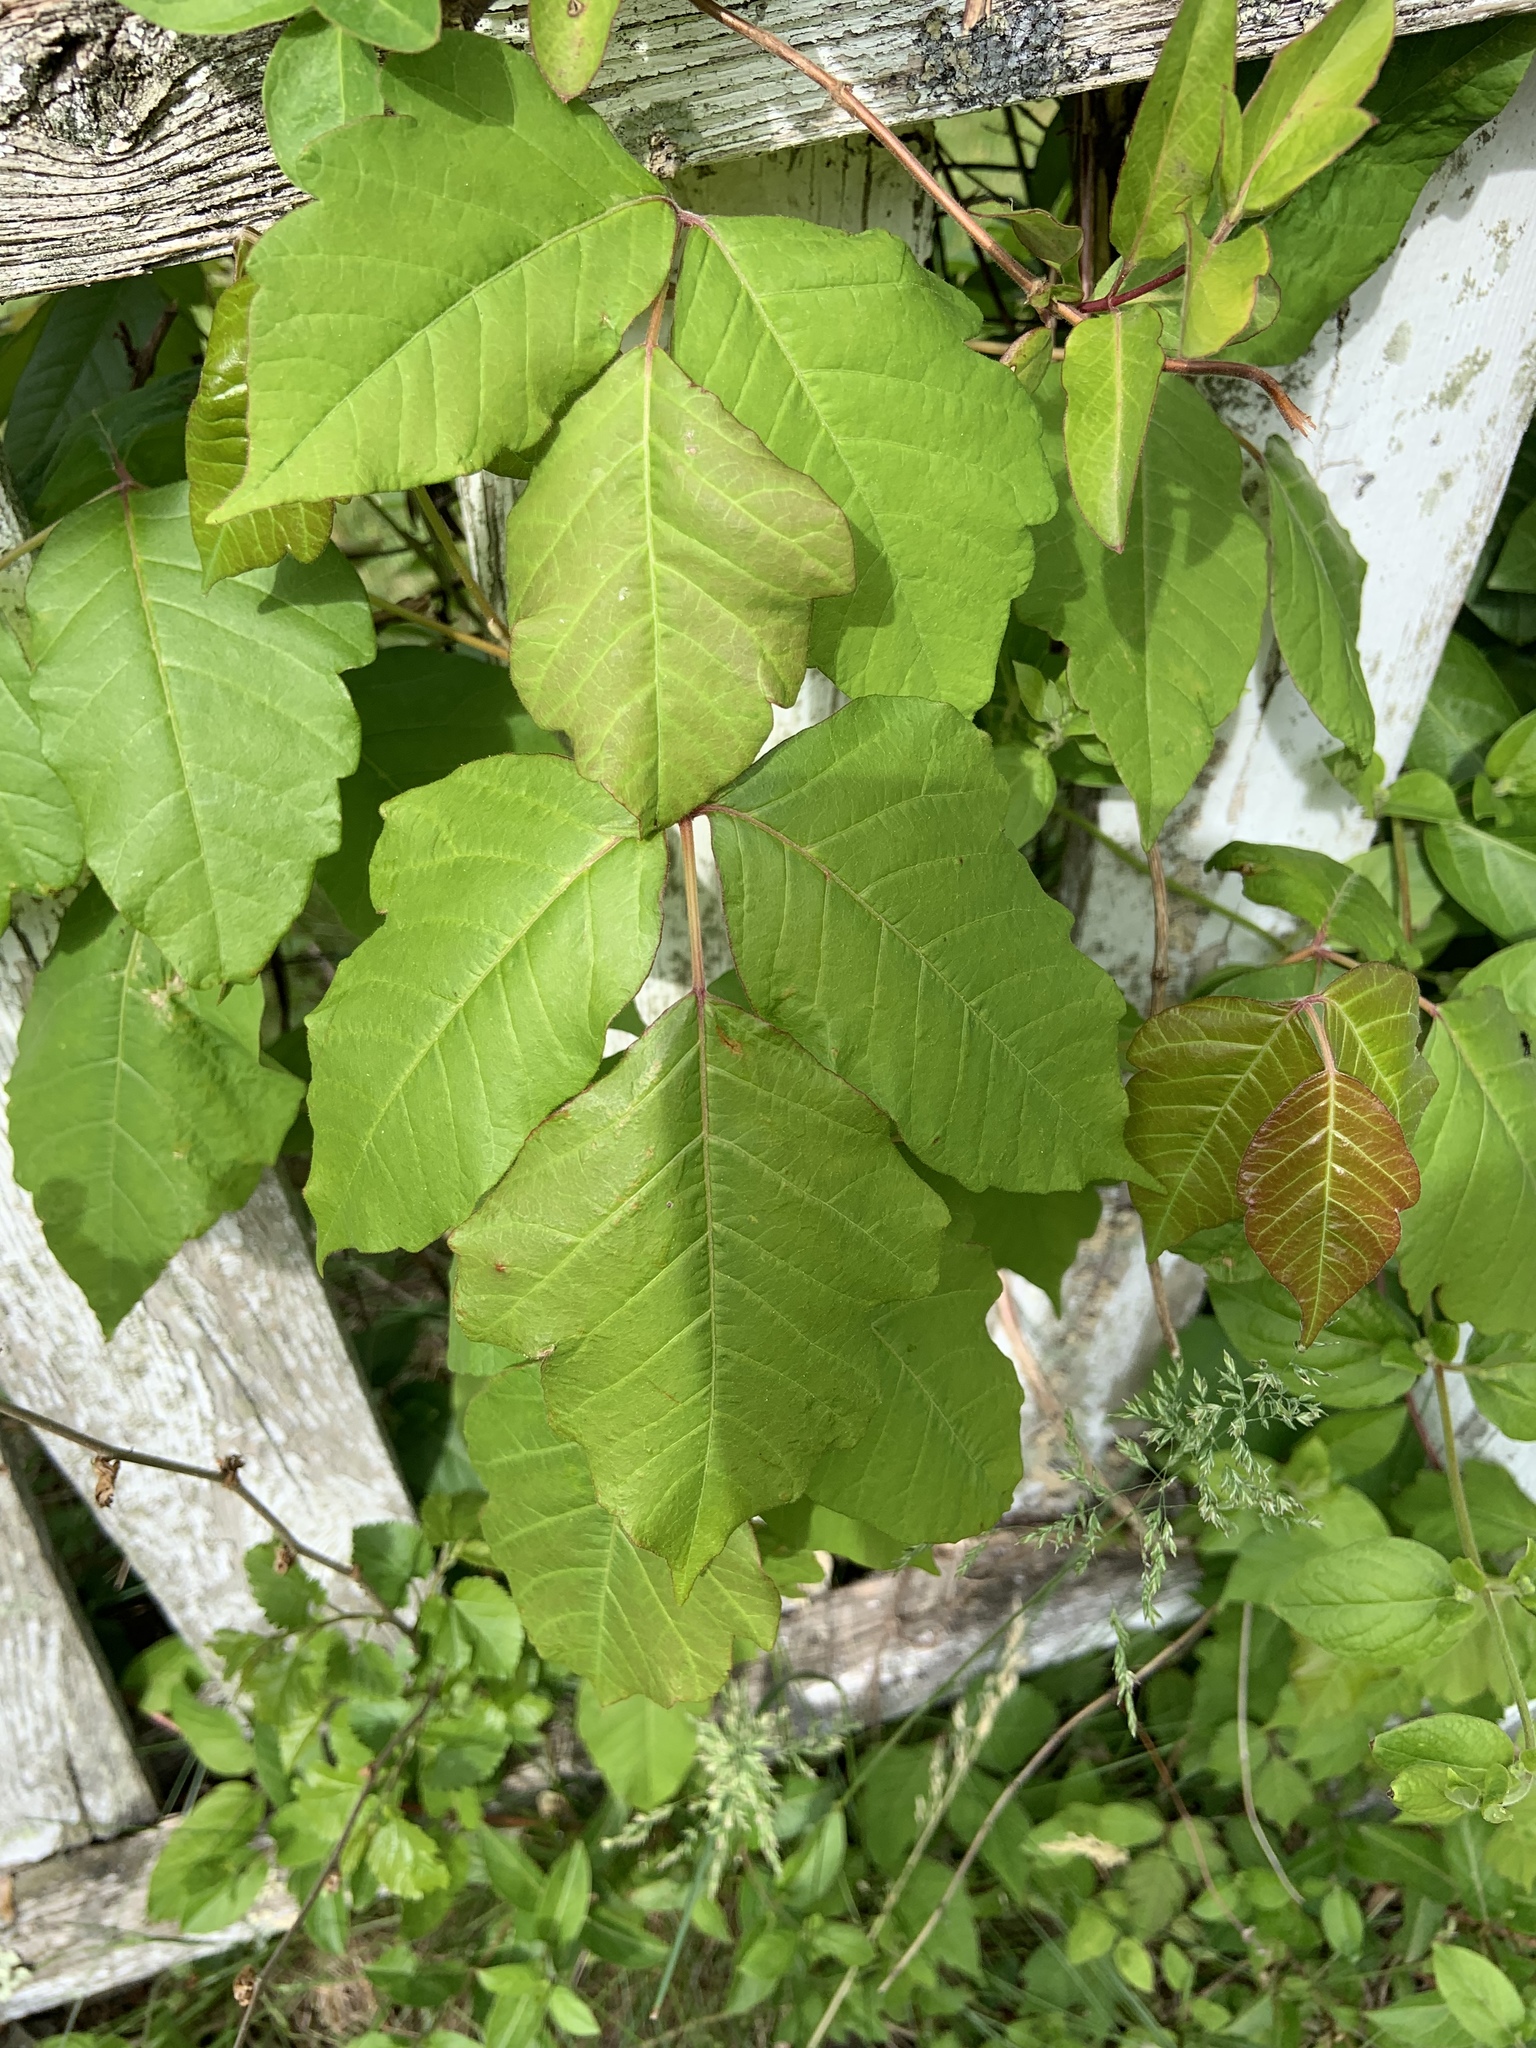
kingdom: Plantae
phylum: Tracheophyta
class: Magnoliopsida
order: Sapindales
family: Anacardiaceae
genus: Toxicodendron
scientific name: Toxicodendron radicans
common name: Poison ivy
